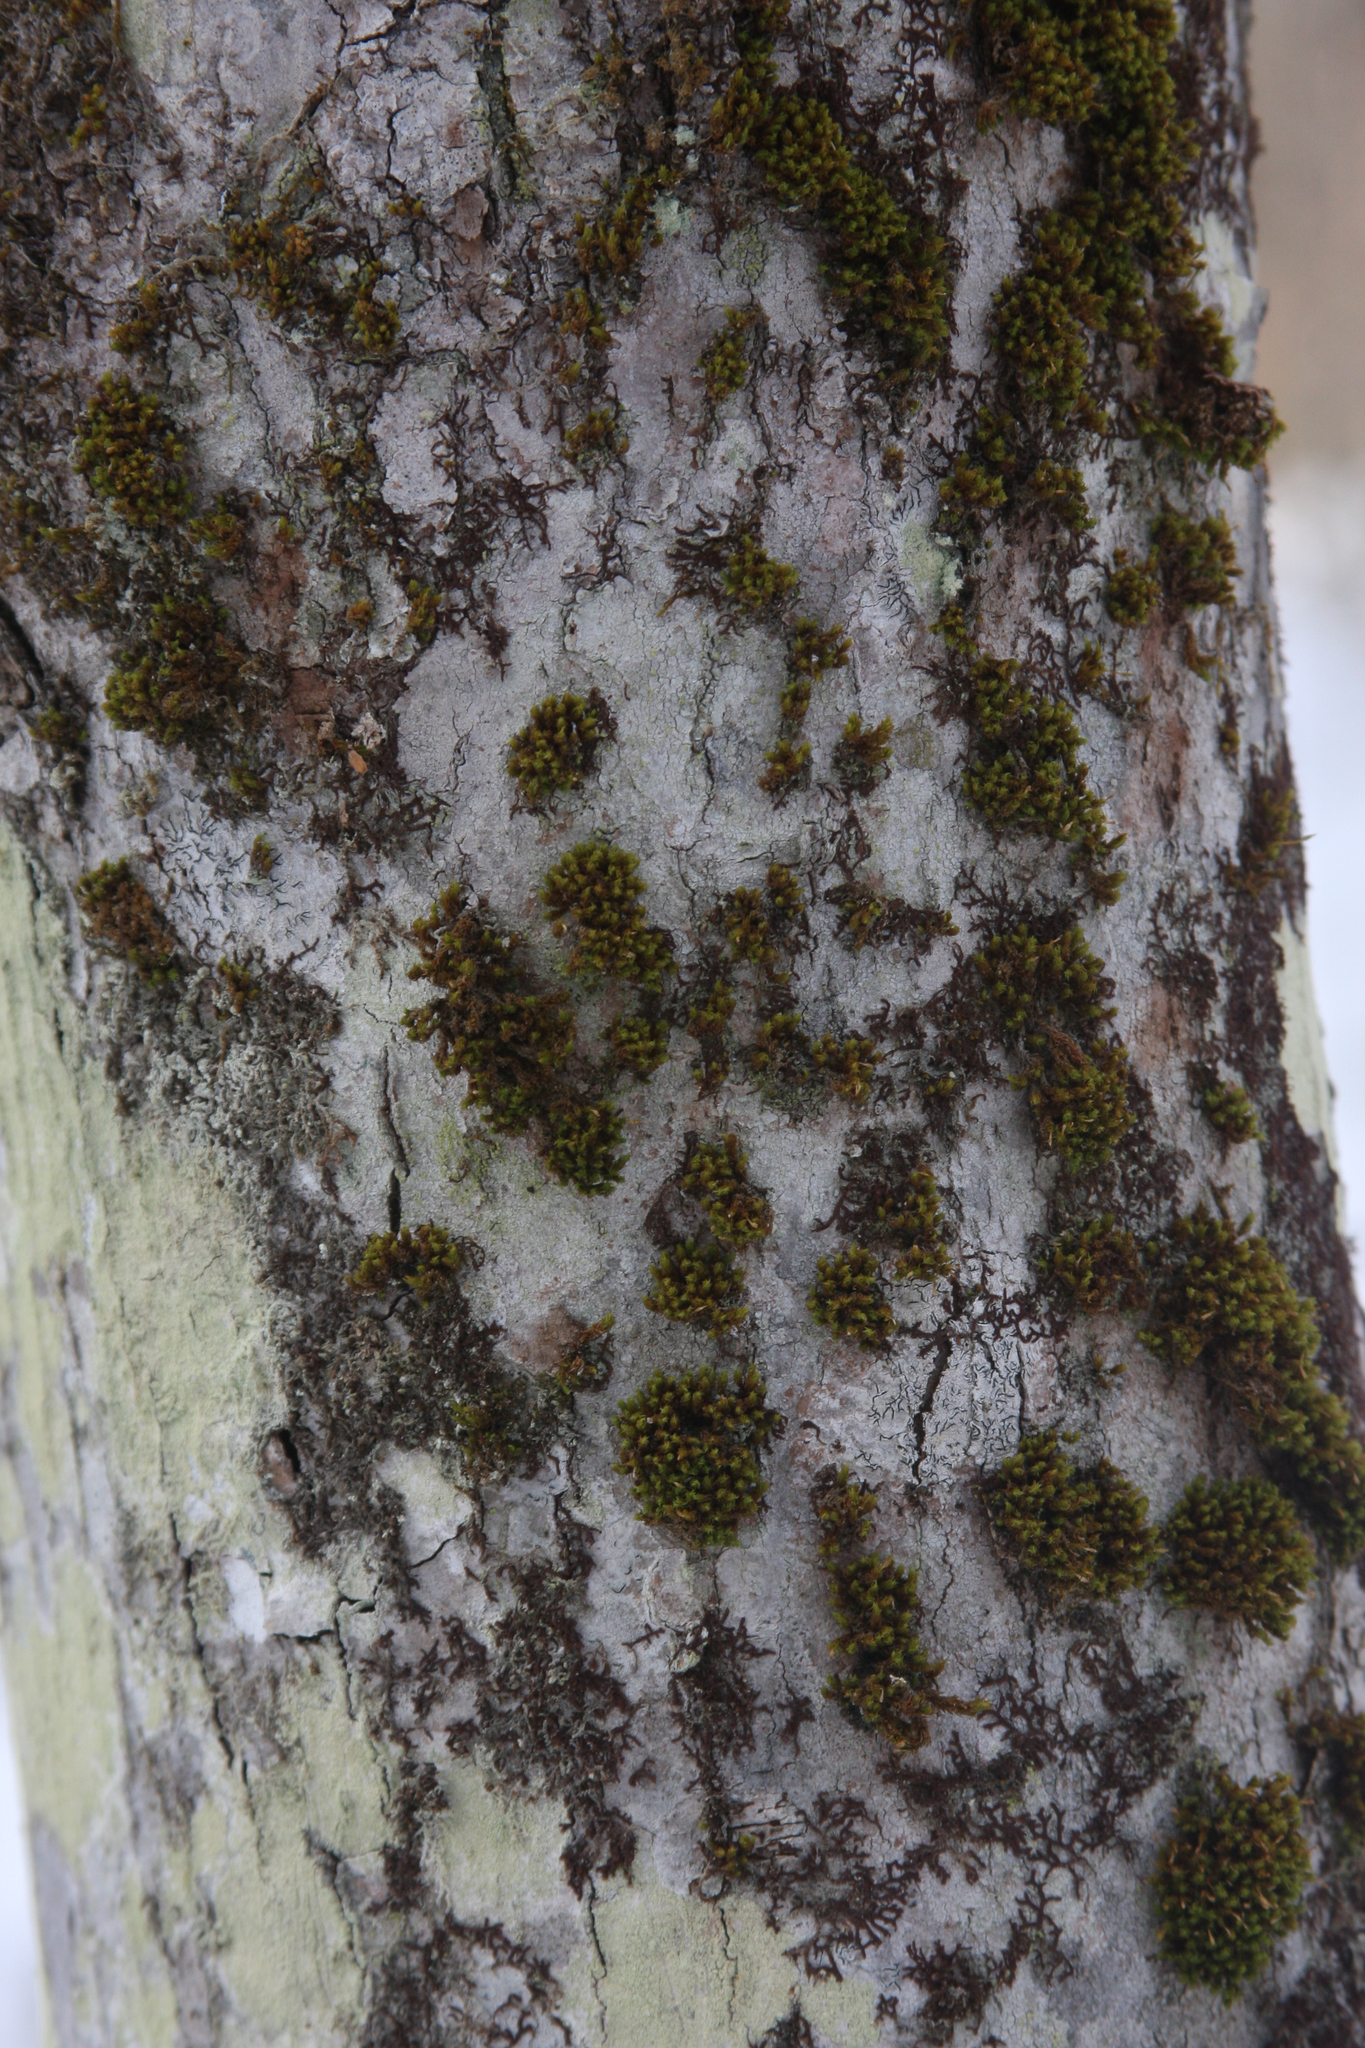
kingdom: Plantae
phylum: Bryophyta
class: Bryopsida
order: Orthotrichales
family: Orthotrichaceae
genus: Ulota
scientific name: Ulota crispa
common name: Crisped pincushion moss
